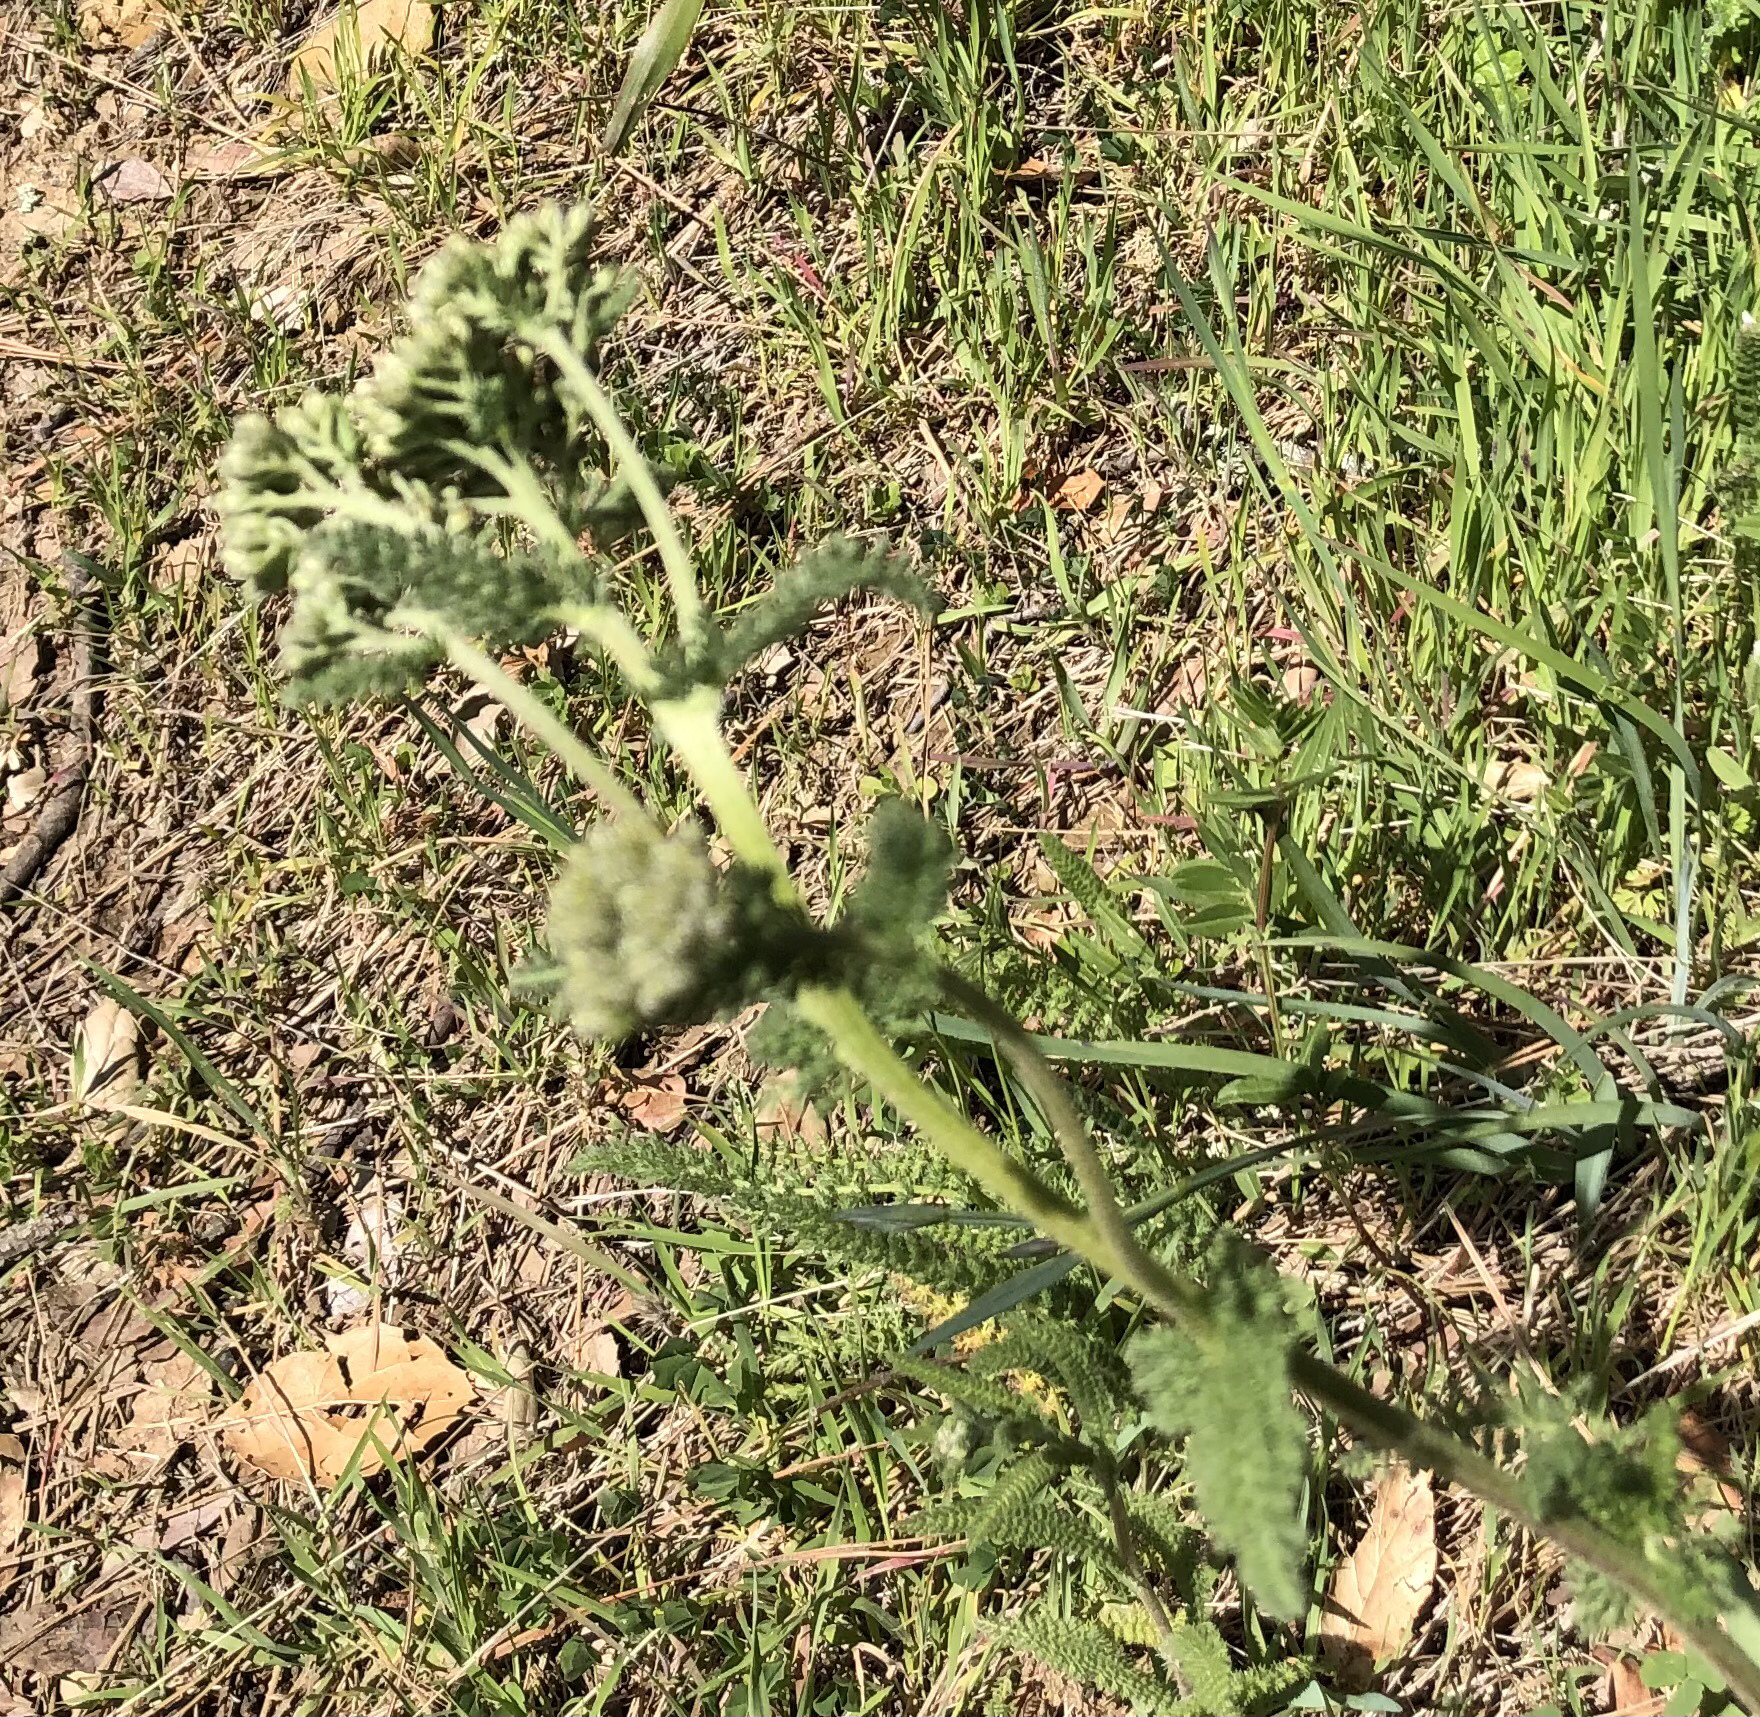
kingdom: Plantae
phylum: Tracheophyta
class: Magnoliopsida
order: Asterales
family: Asteraceae
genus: Achillea
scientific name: Achillea millefolium
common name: Yarrow
